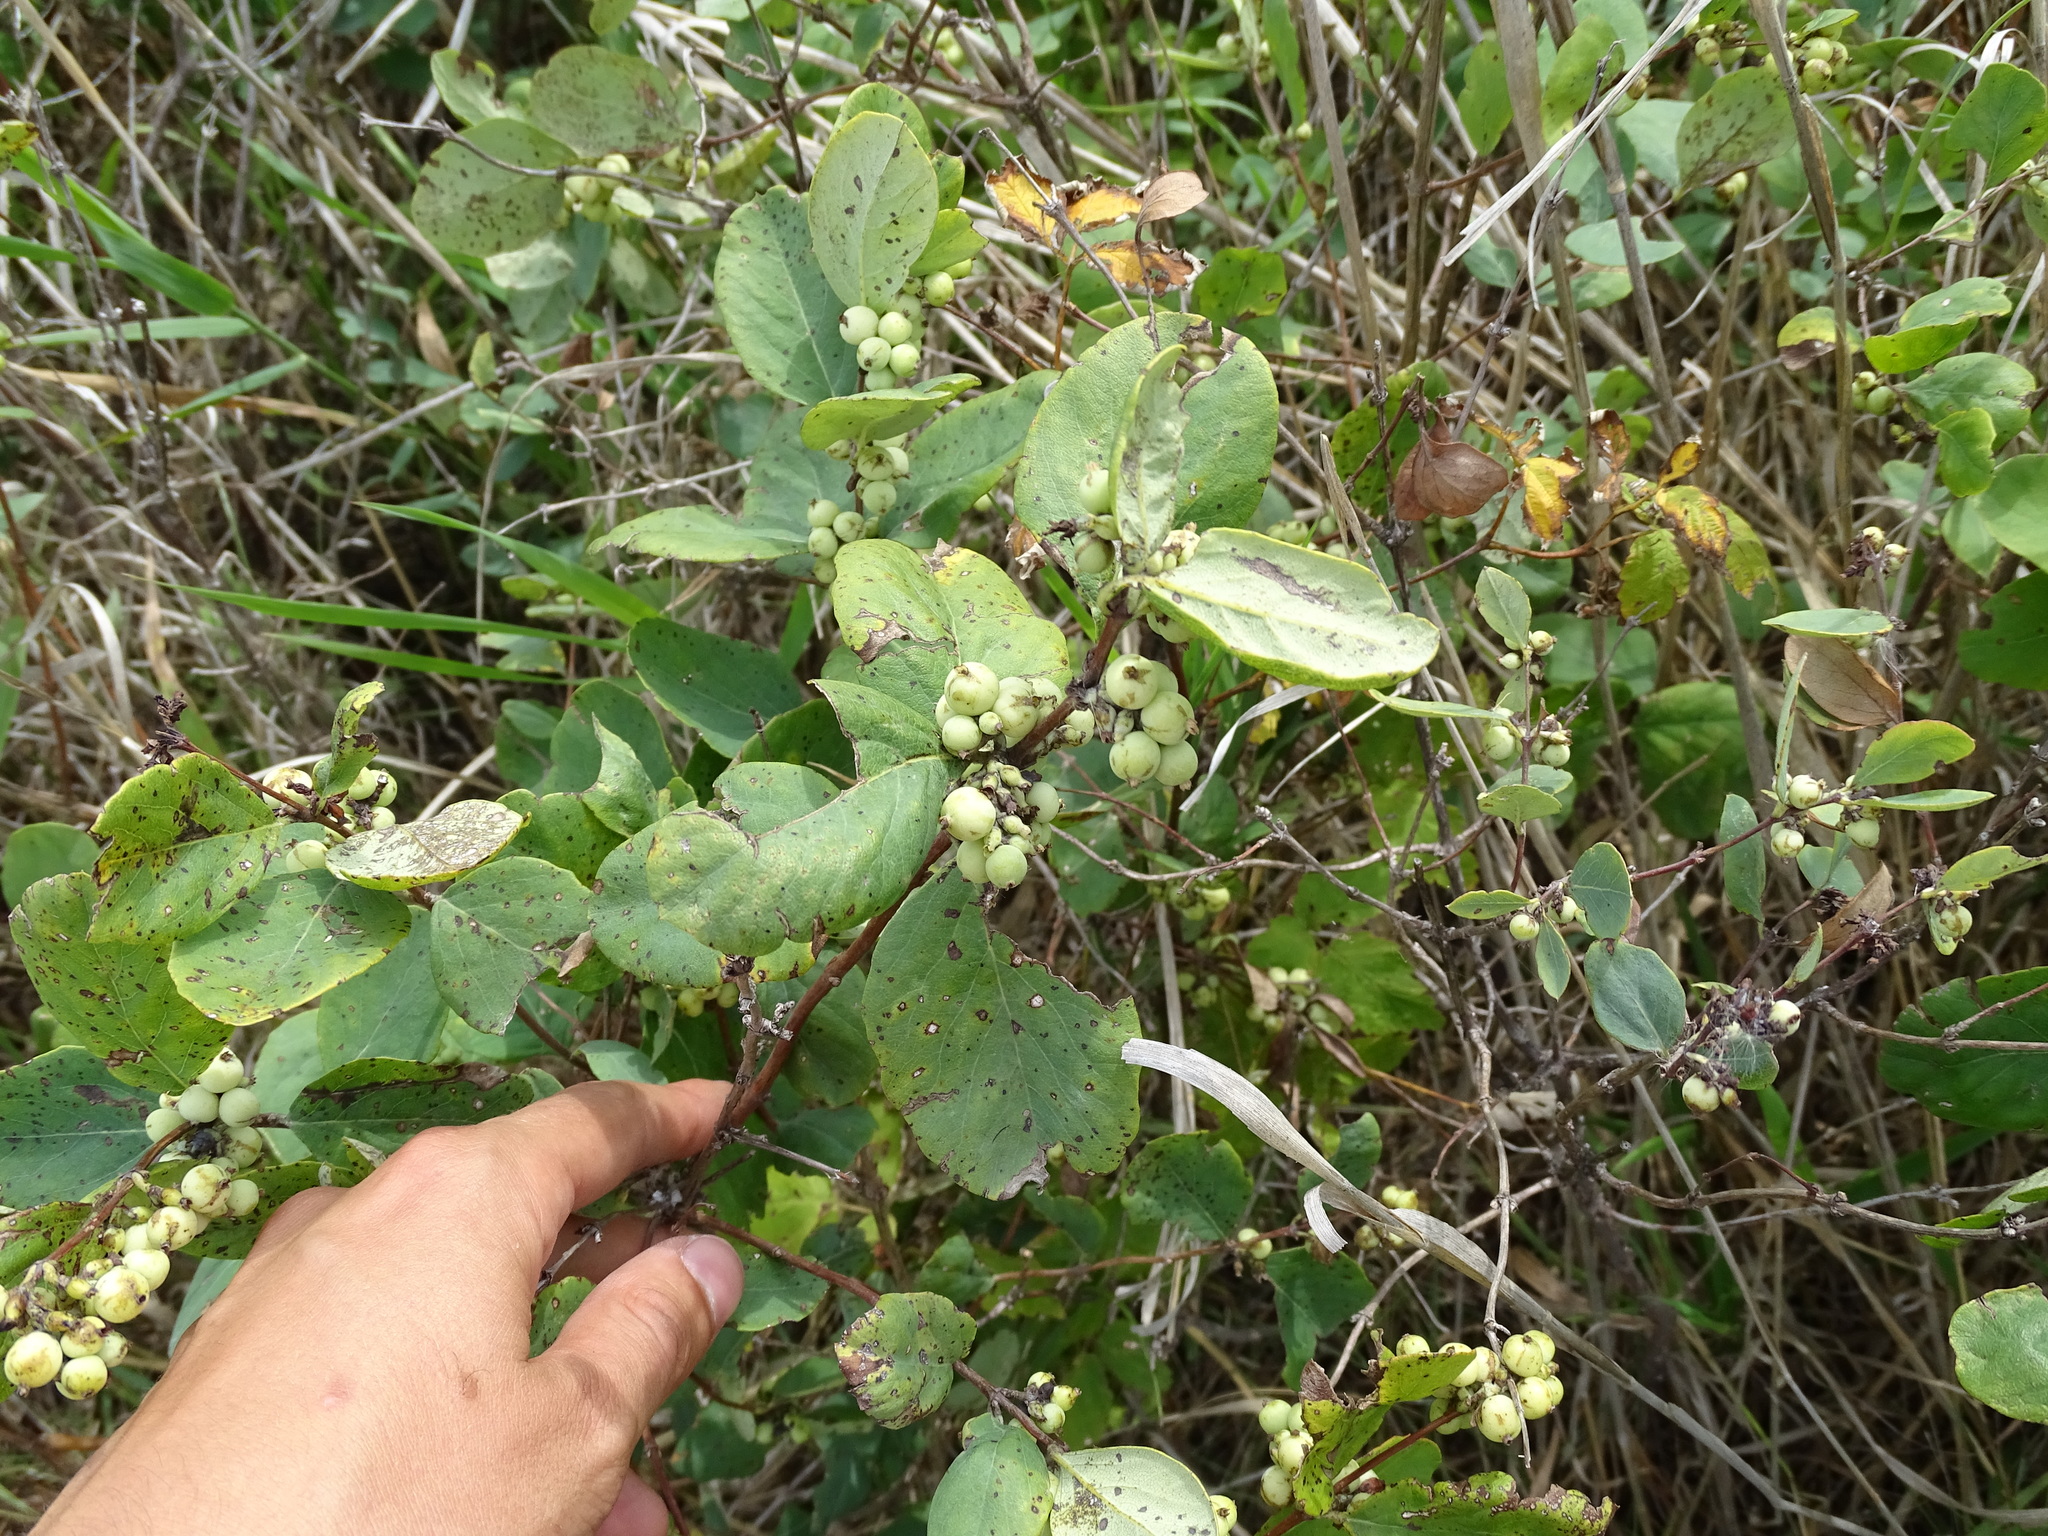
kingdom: Plantae
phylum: Tracheophyta
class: Magnoliopsida
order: Dipsacales
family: Caprifoliaceae
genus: Symphoricarpos
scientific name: Symphoricarpos albus
